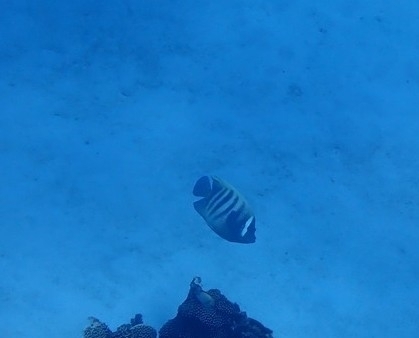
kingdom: Animalia
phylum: Chordata
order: Perciformes
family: Pomacanthidae
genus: Pomacanthus
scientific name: Pomacanthus sexstriatus
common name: Six-banded angelfish
